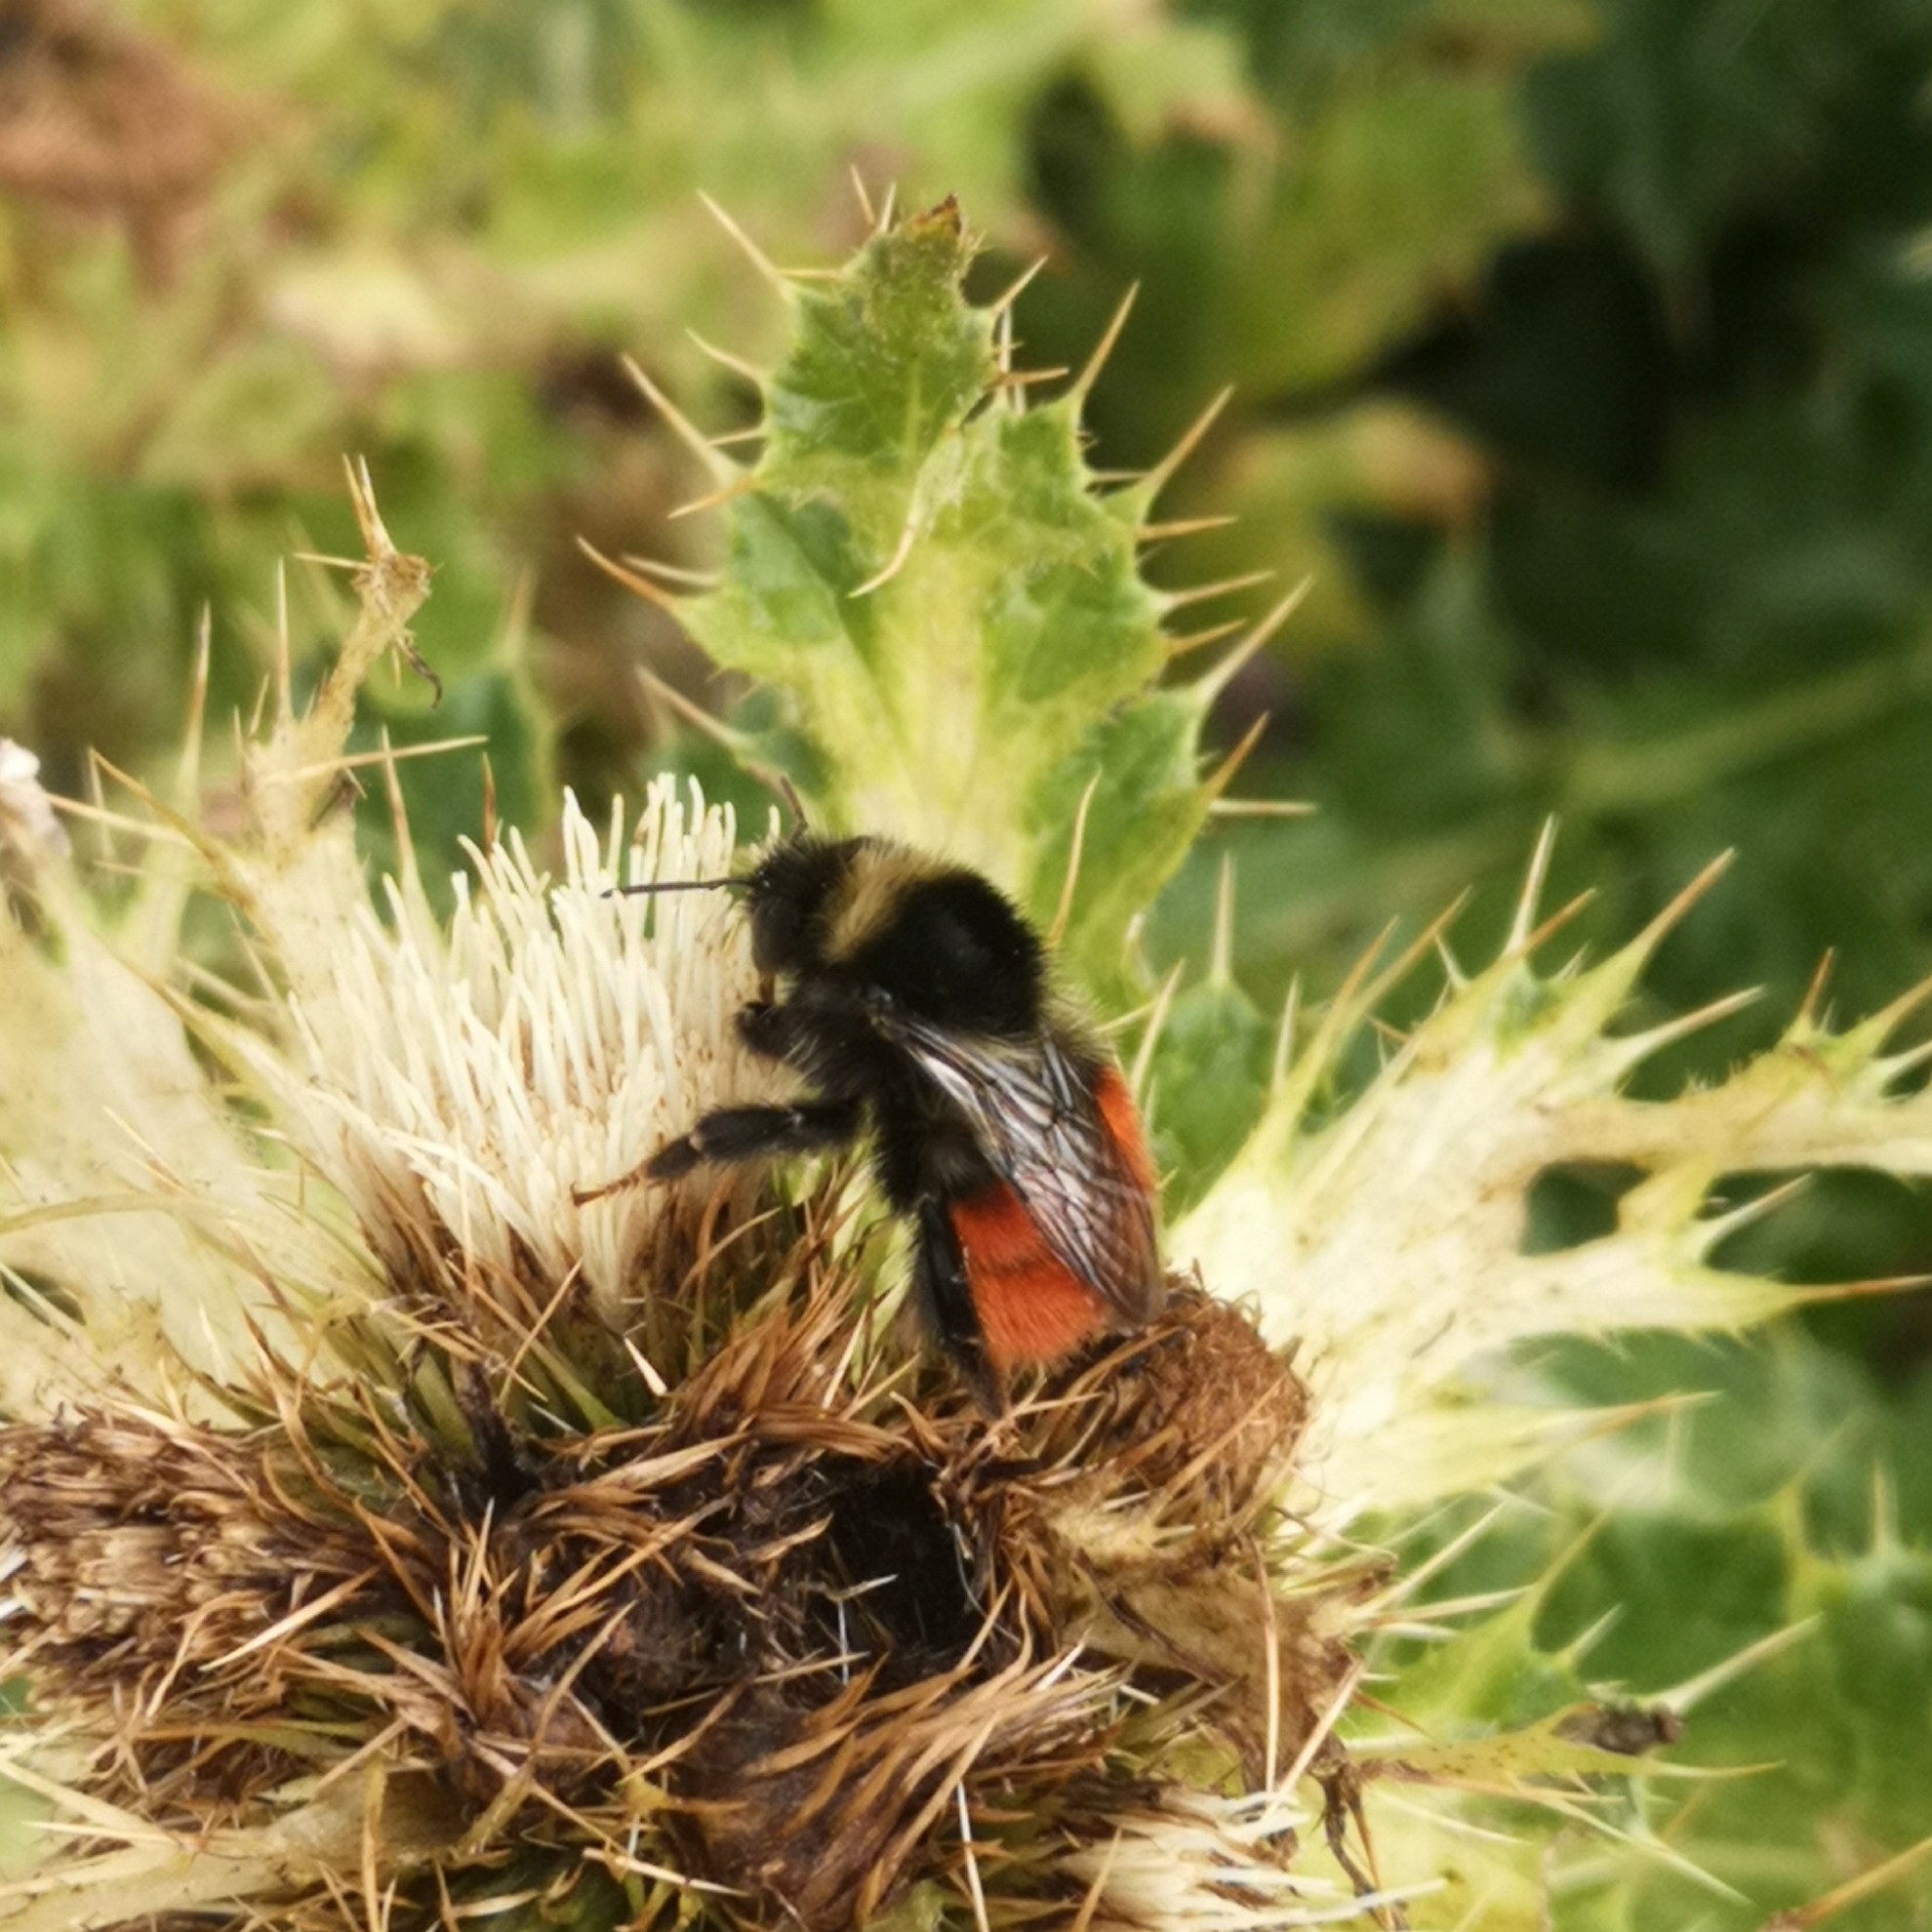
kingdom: Animalia
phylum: Arthropoda
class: Insecta
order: Hymenoptera
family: Apidae
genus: Bombus
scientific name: Bombus monticola
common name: Bilberry humble-bee
